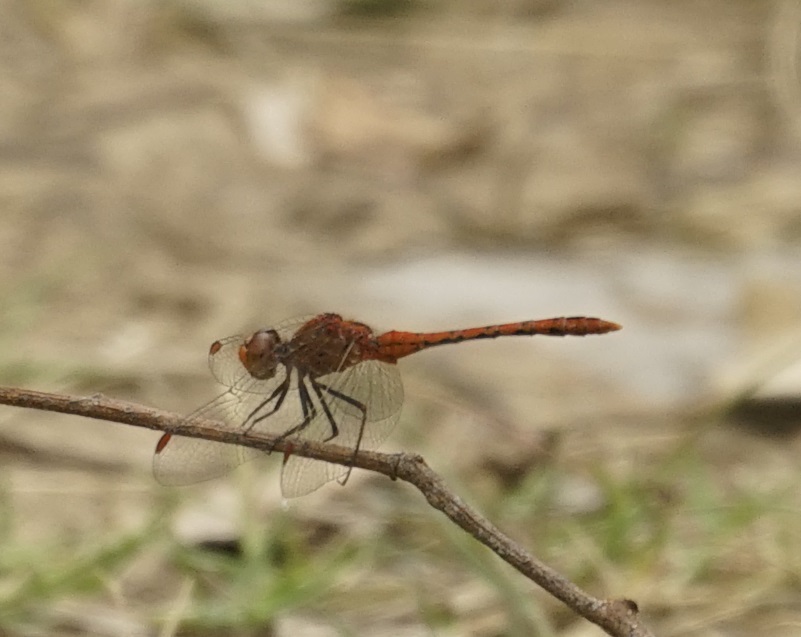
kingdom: Animalia
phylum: Arthropoda
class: Insecta
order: Odonata
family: Libellulidae
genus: Diplacodes
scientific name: Diplacodes bipunctata
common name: Red percher dragonfly
